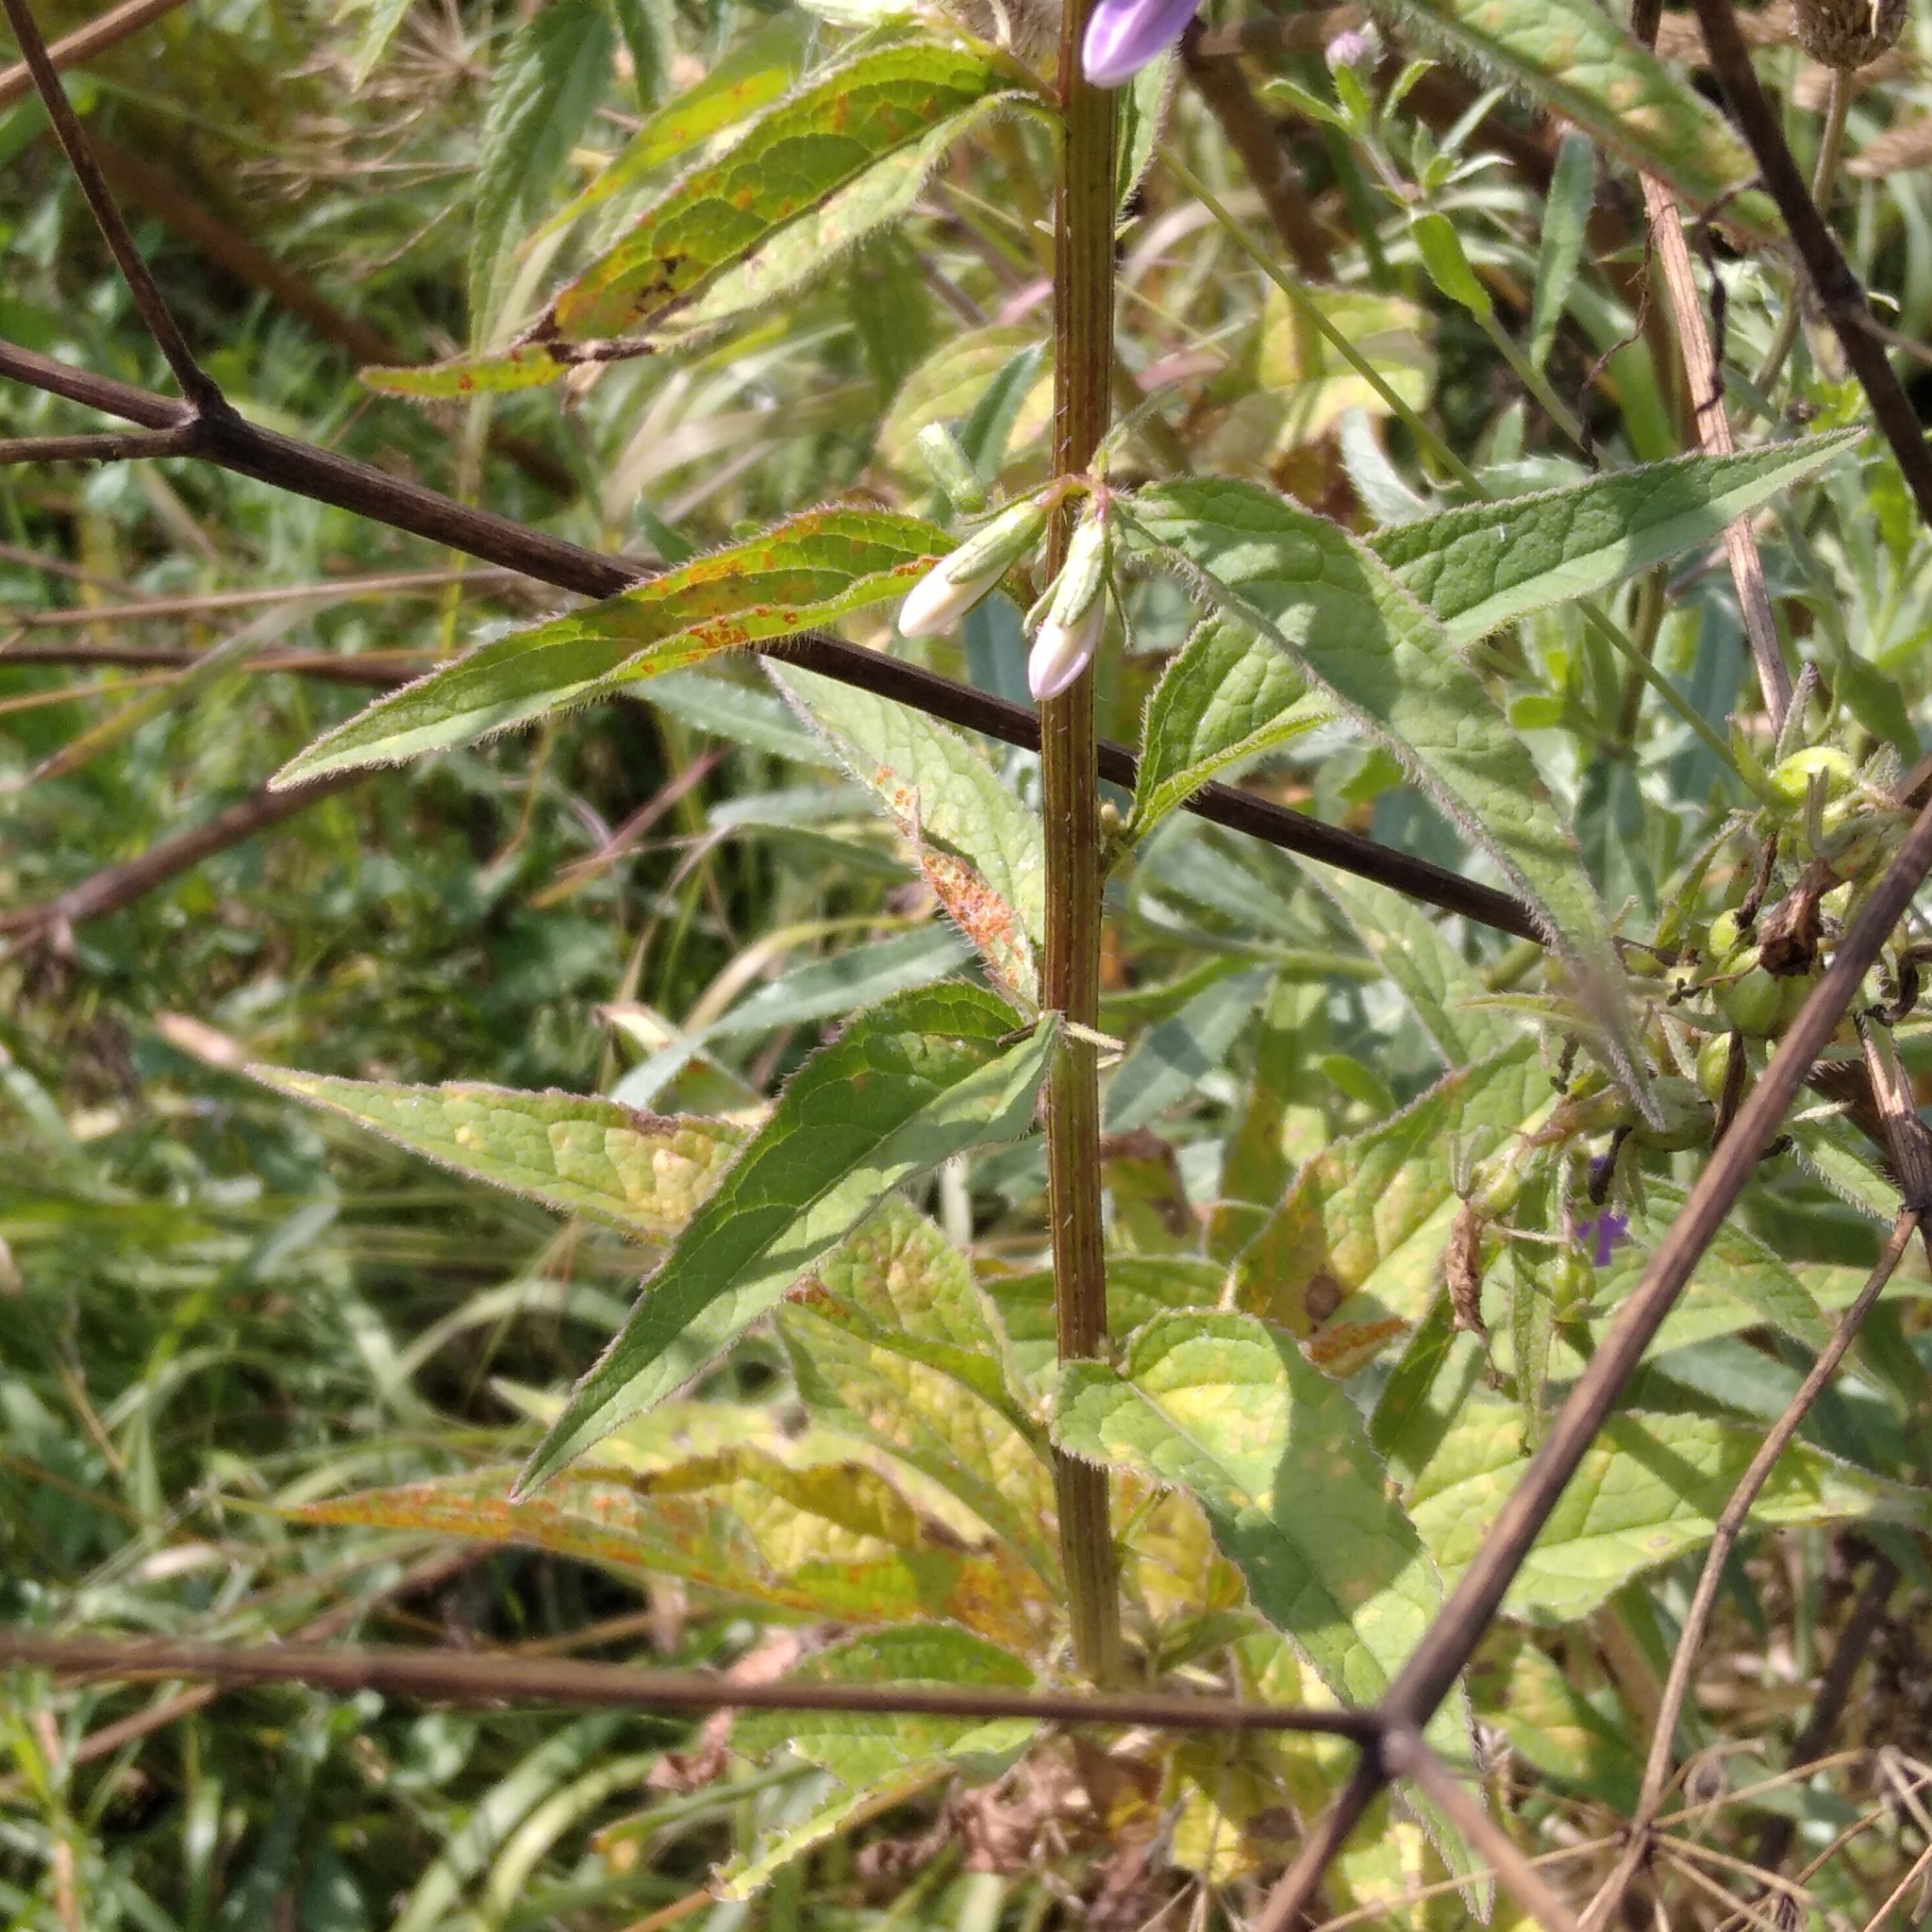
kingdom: Plantae
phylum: Tracheophyta
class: Magnoliopsida
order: Asterales
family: Campanulaceae
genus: Campanula
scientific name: Campanula rapunculoides
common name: Creeping bellflower
